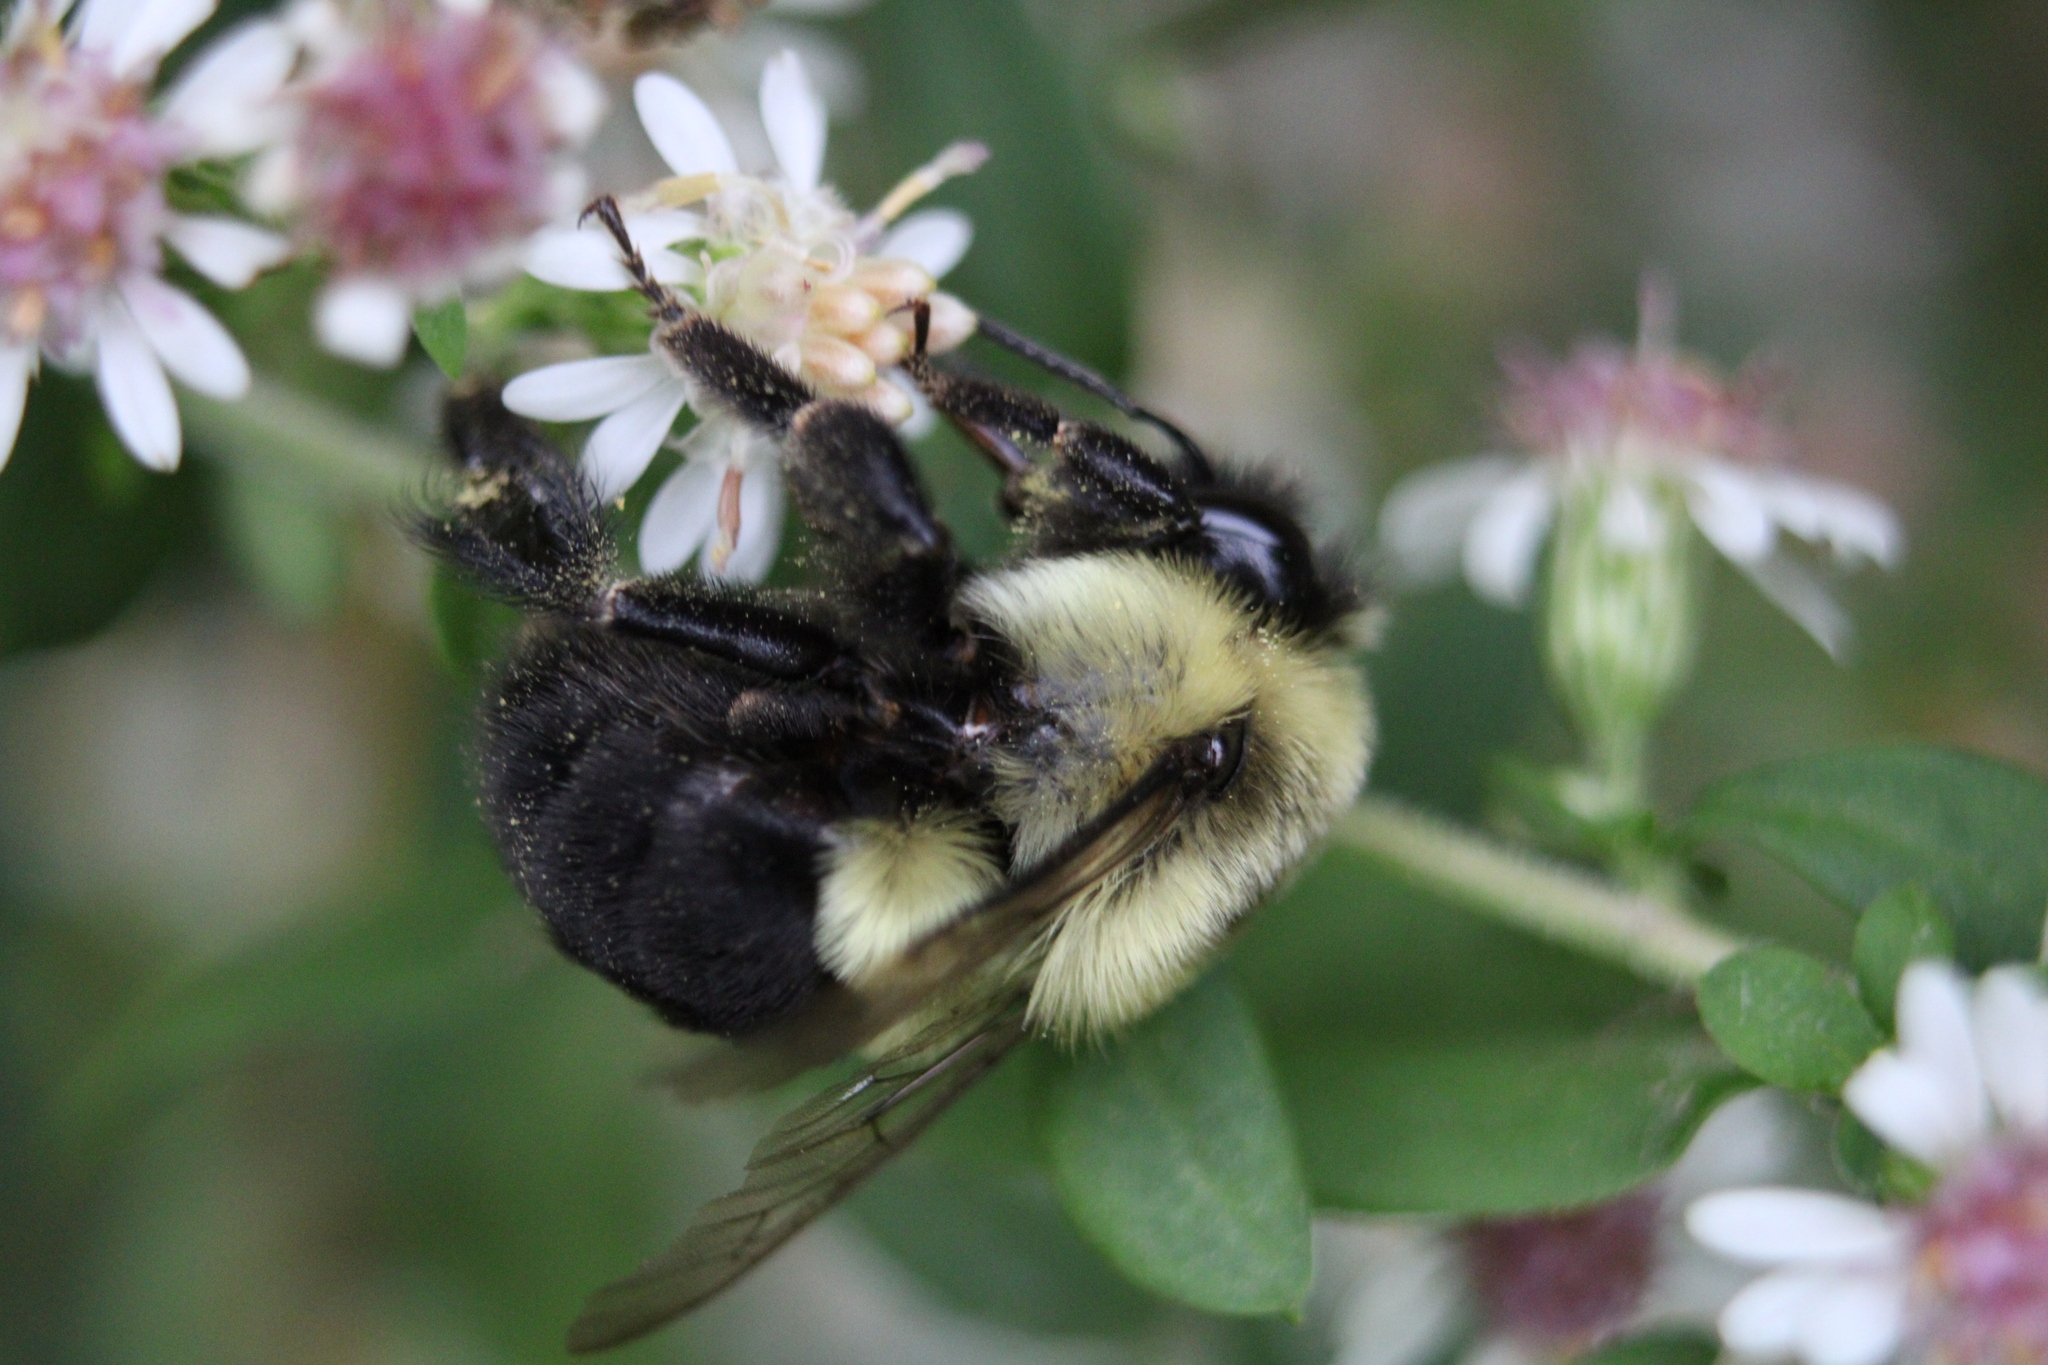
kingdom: Animalia
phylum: Arthropoda
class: Insecta
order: Hymenoptera
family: Apidae
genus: Bombus
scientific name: Bombus impatiens
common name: Common eastern bumble bee
